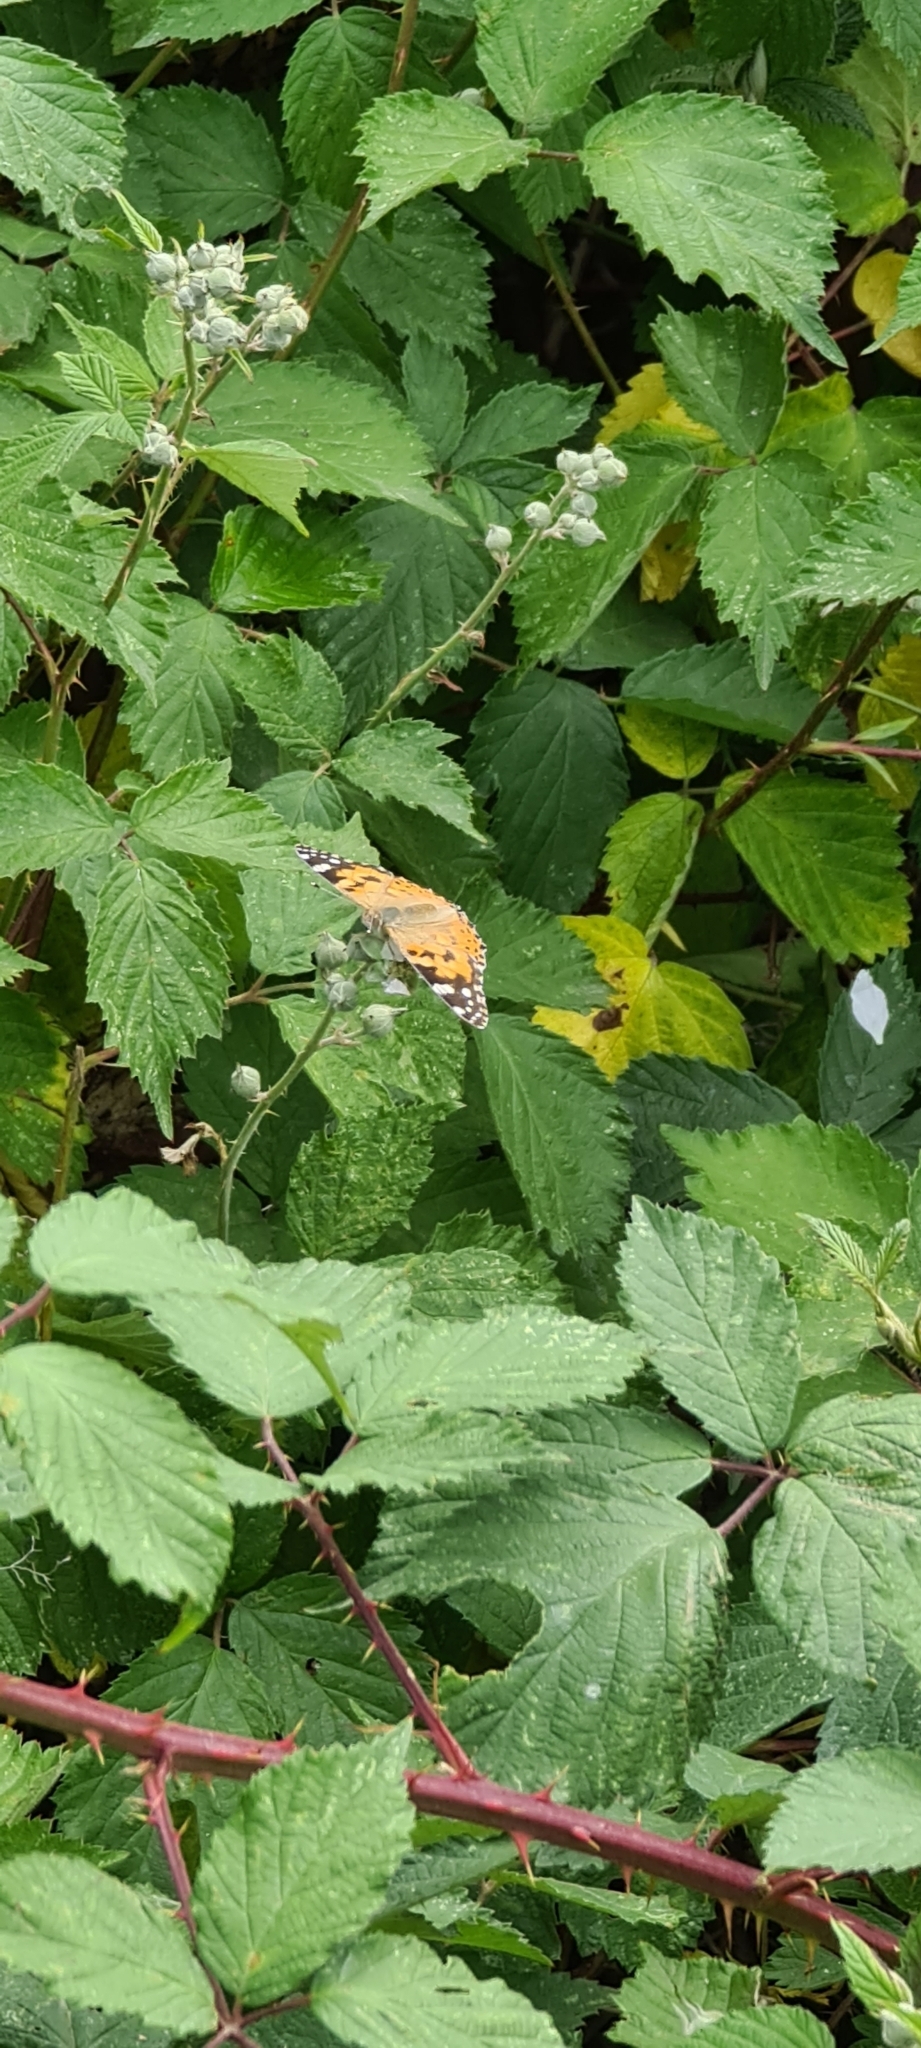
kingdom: Animalia
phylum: Arthropoda
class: Insecta
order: Lepidoptera
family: Nymphalidae
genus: Vanessa
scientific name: Vanessa cardui
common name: Painted lady
